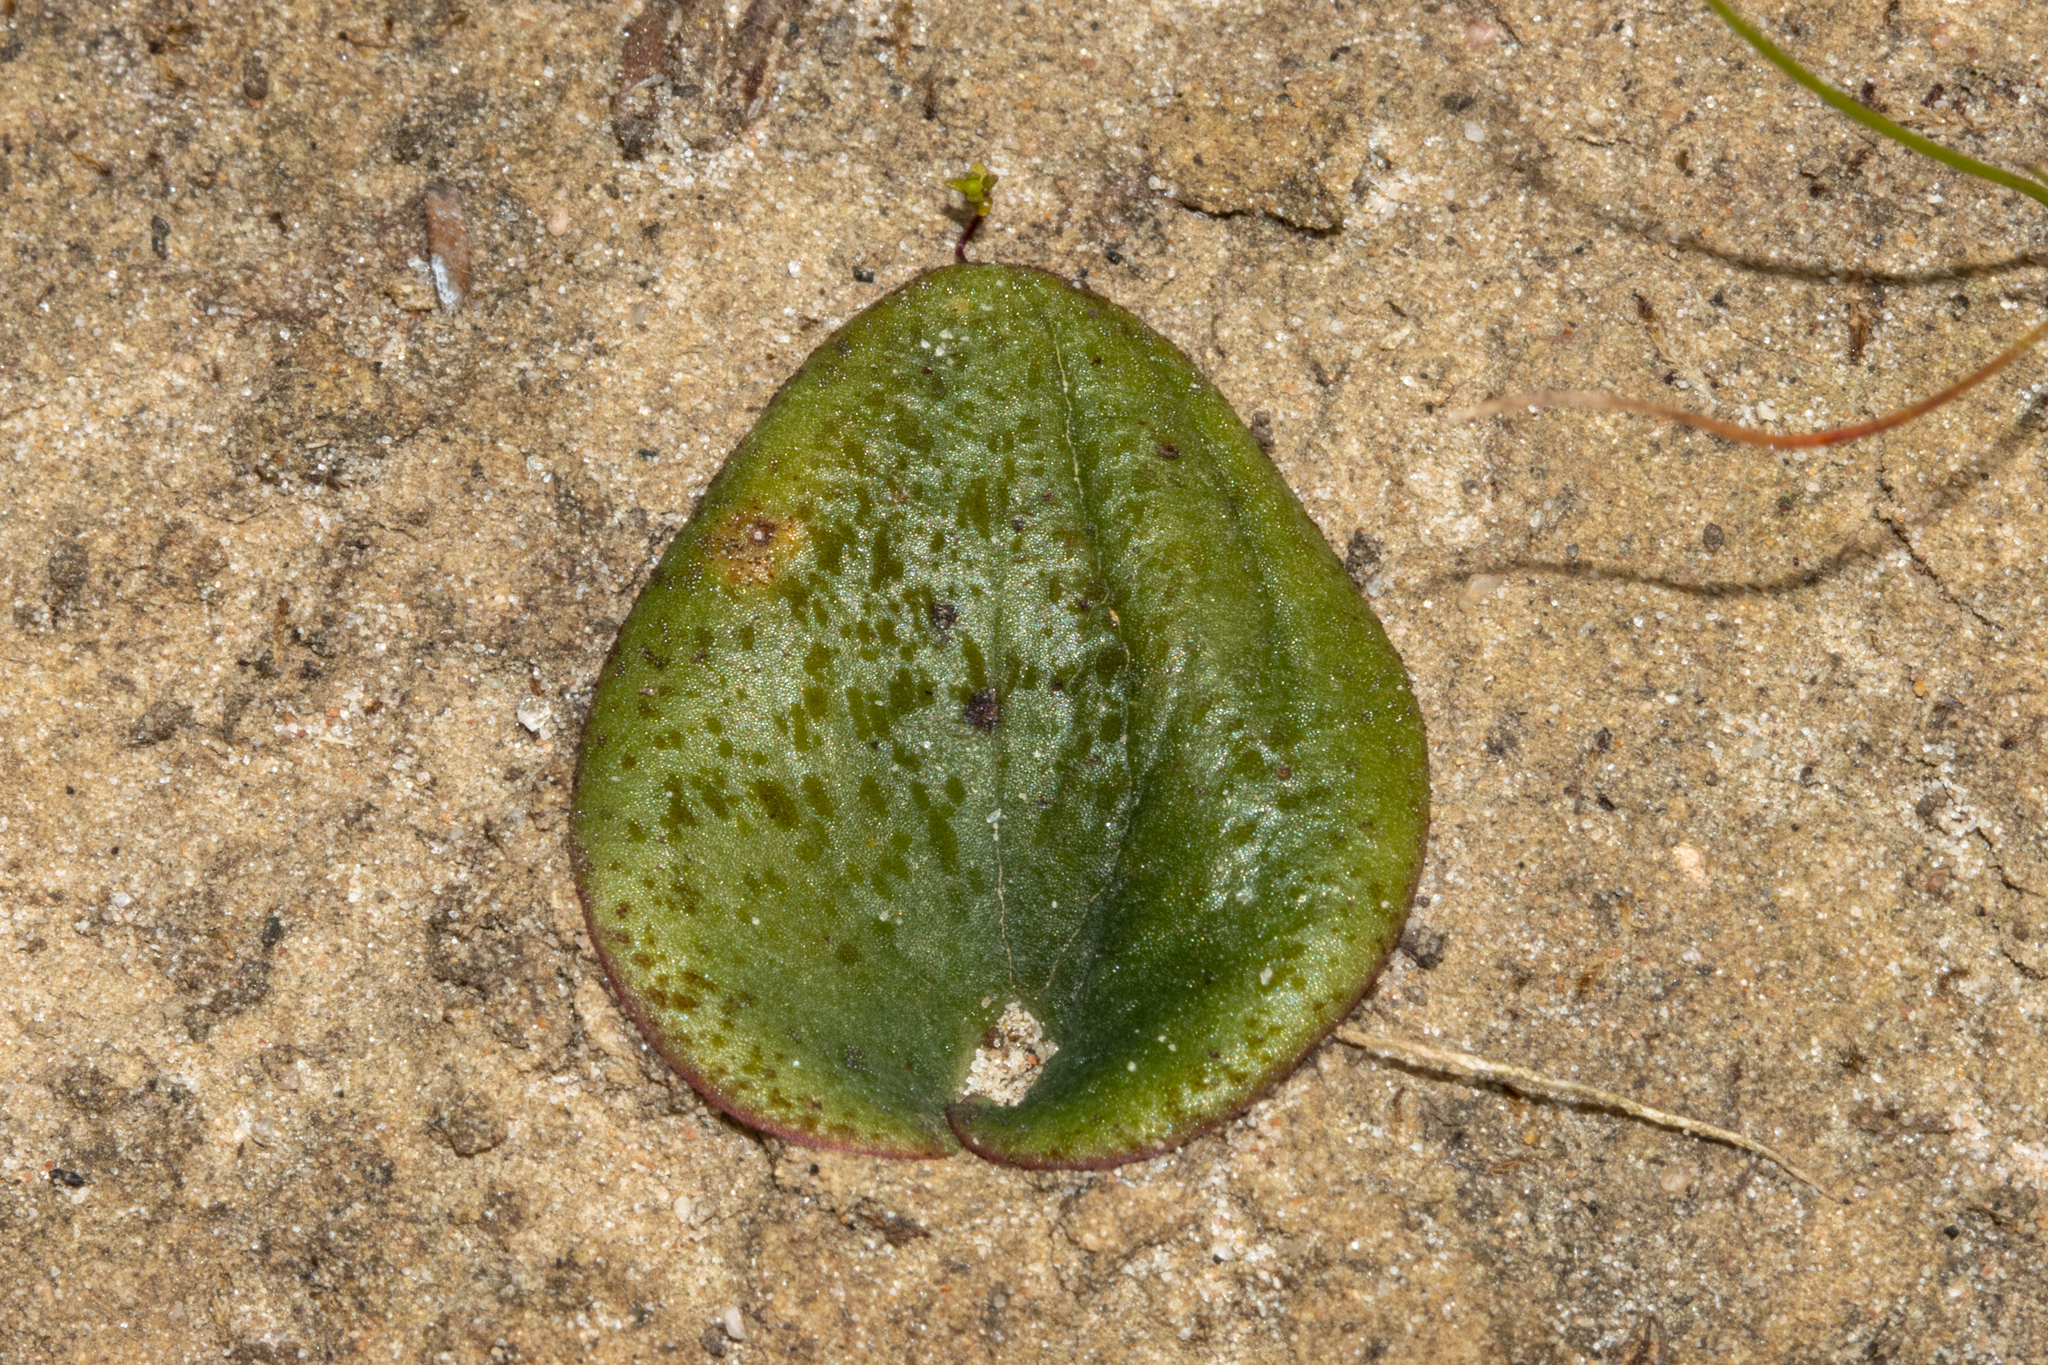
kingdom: Plantae
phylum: Tracheophyta
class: Liliopsida
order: Asparagales
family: Orchidaceae
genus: Pyrorchis
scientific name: Pyrorchis nigricans
